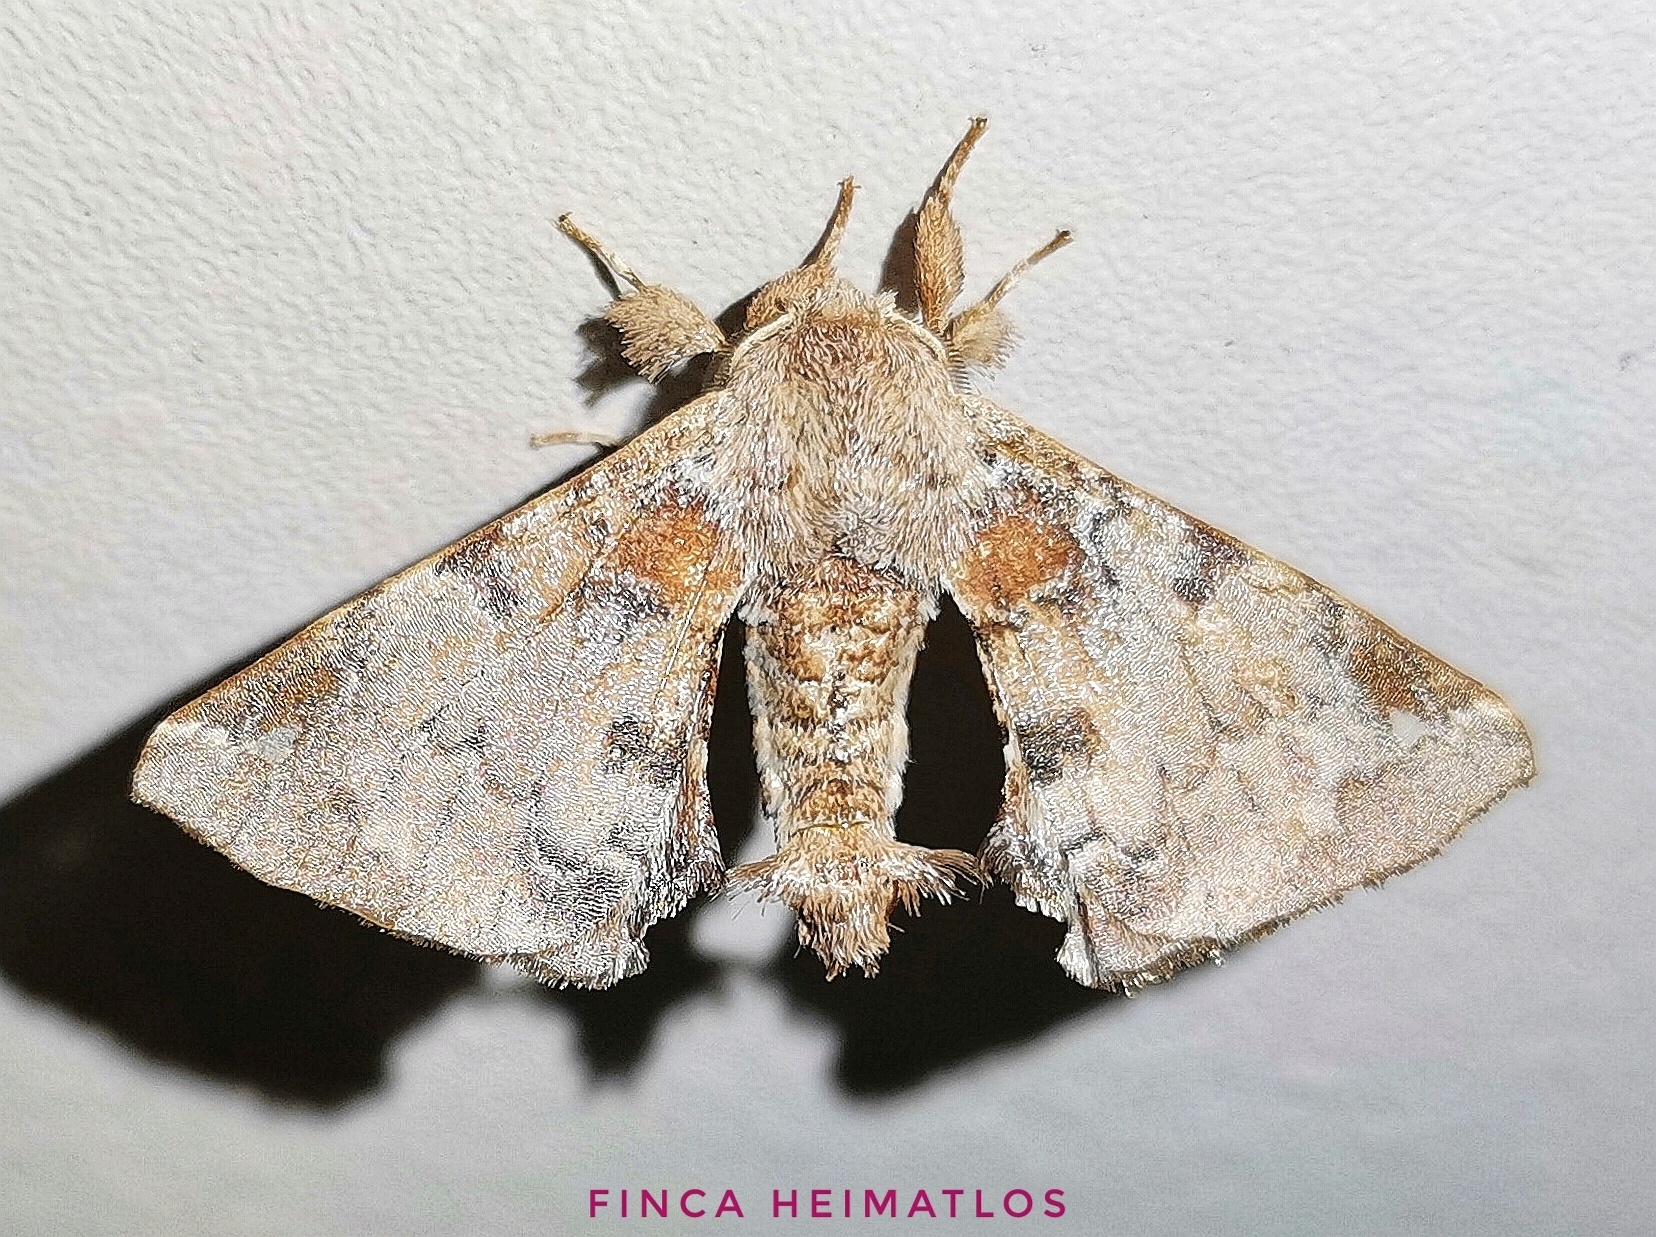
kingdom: Animalia
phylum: Arthropoda
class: Insecta
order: Lepidoptera
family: Apatelodidae
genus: Hygrochroa
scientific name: Hygrochroa
